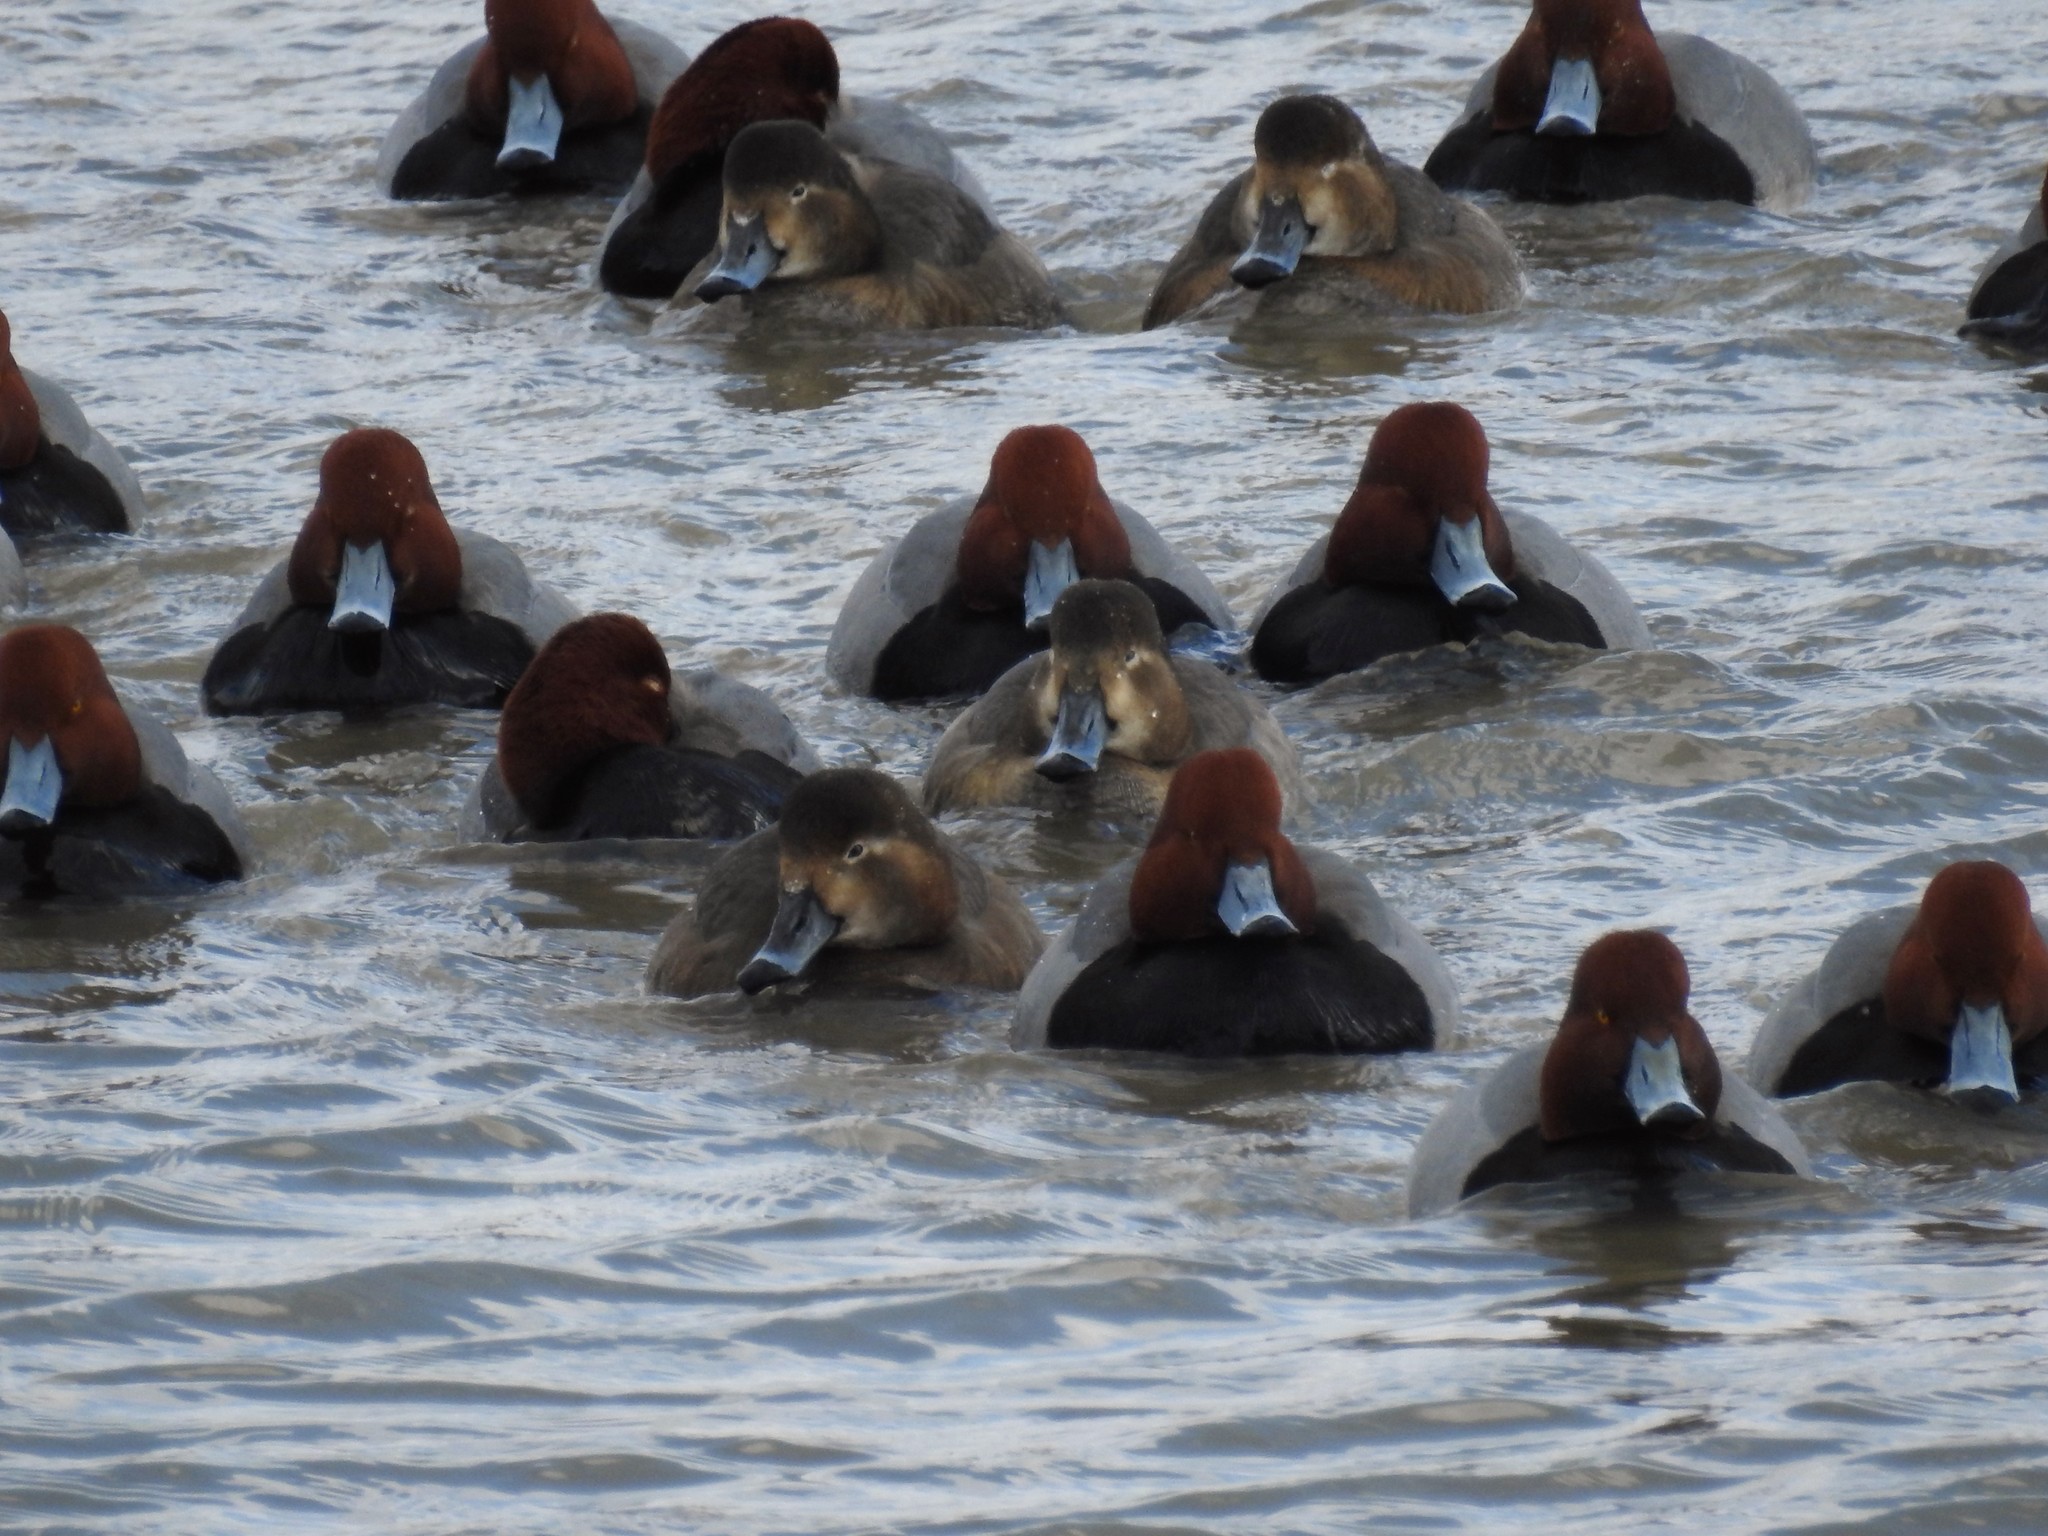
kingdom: Animalia
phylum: Chordata
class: Aves
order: Anseriformes
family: Anatidae
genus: Aythya
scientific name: Aythya americana
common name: Redhead
